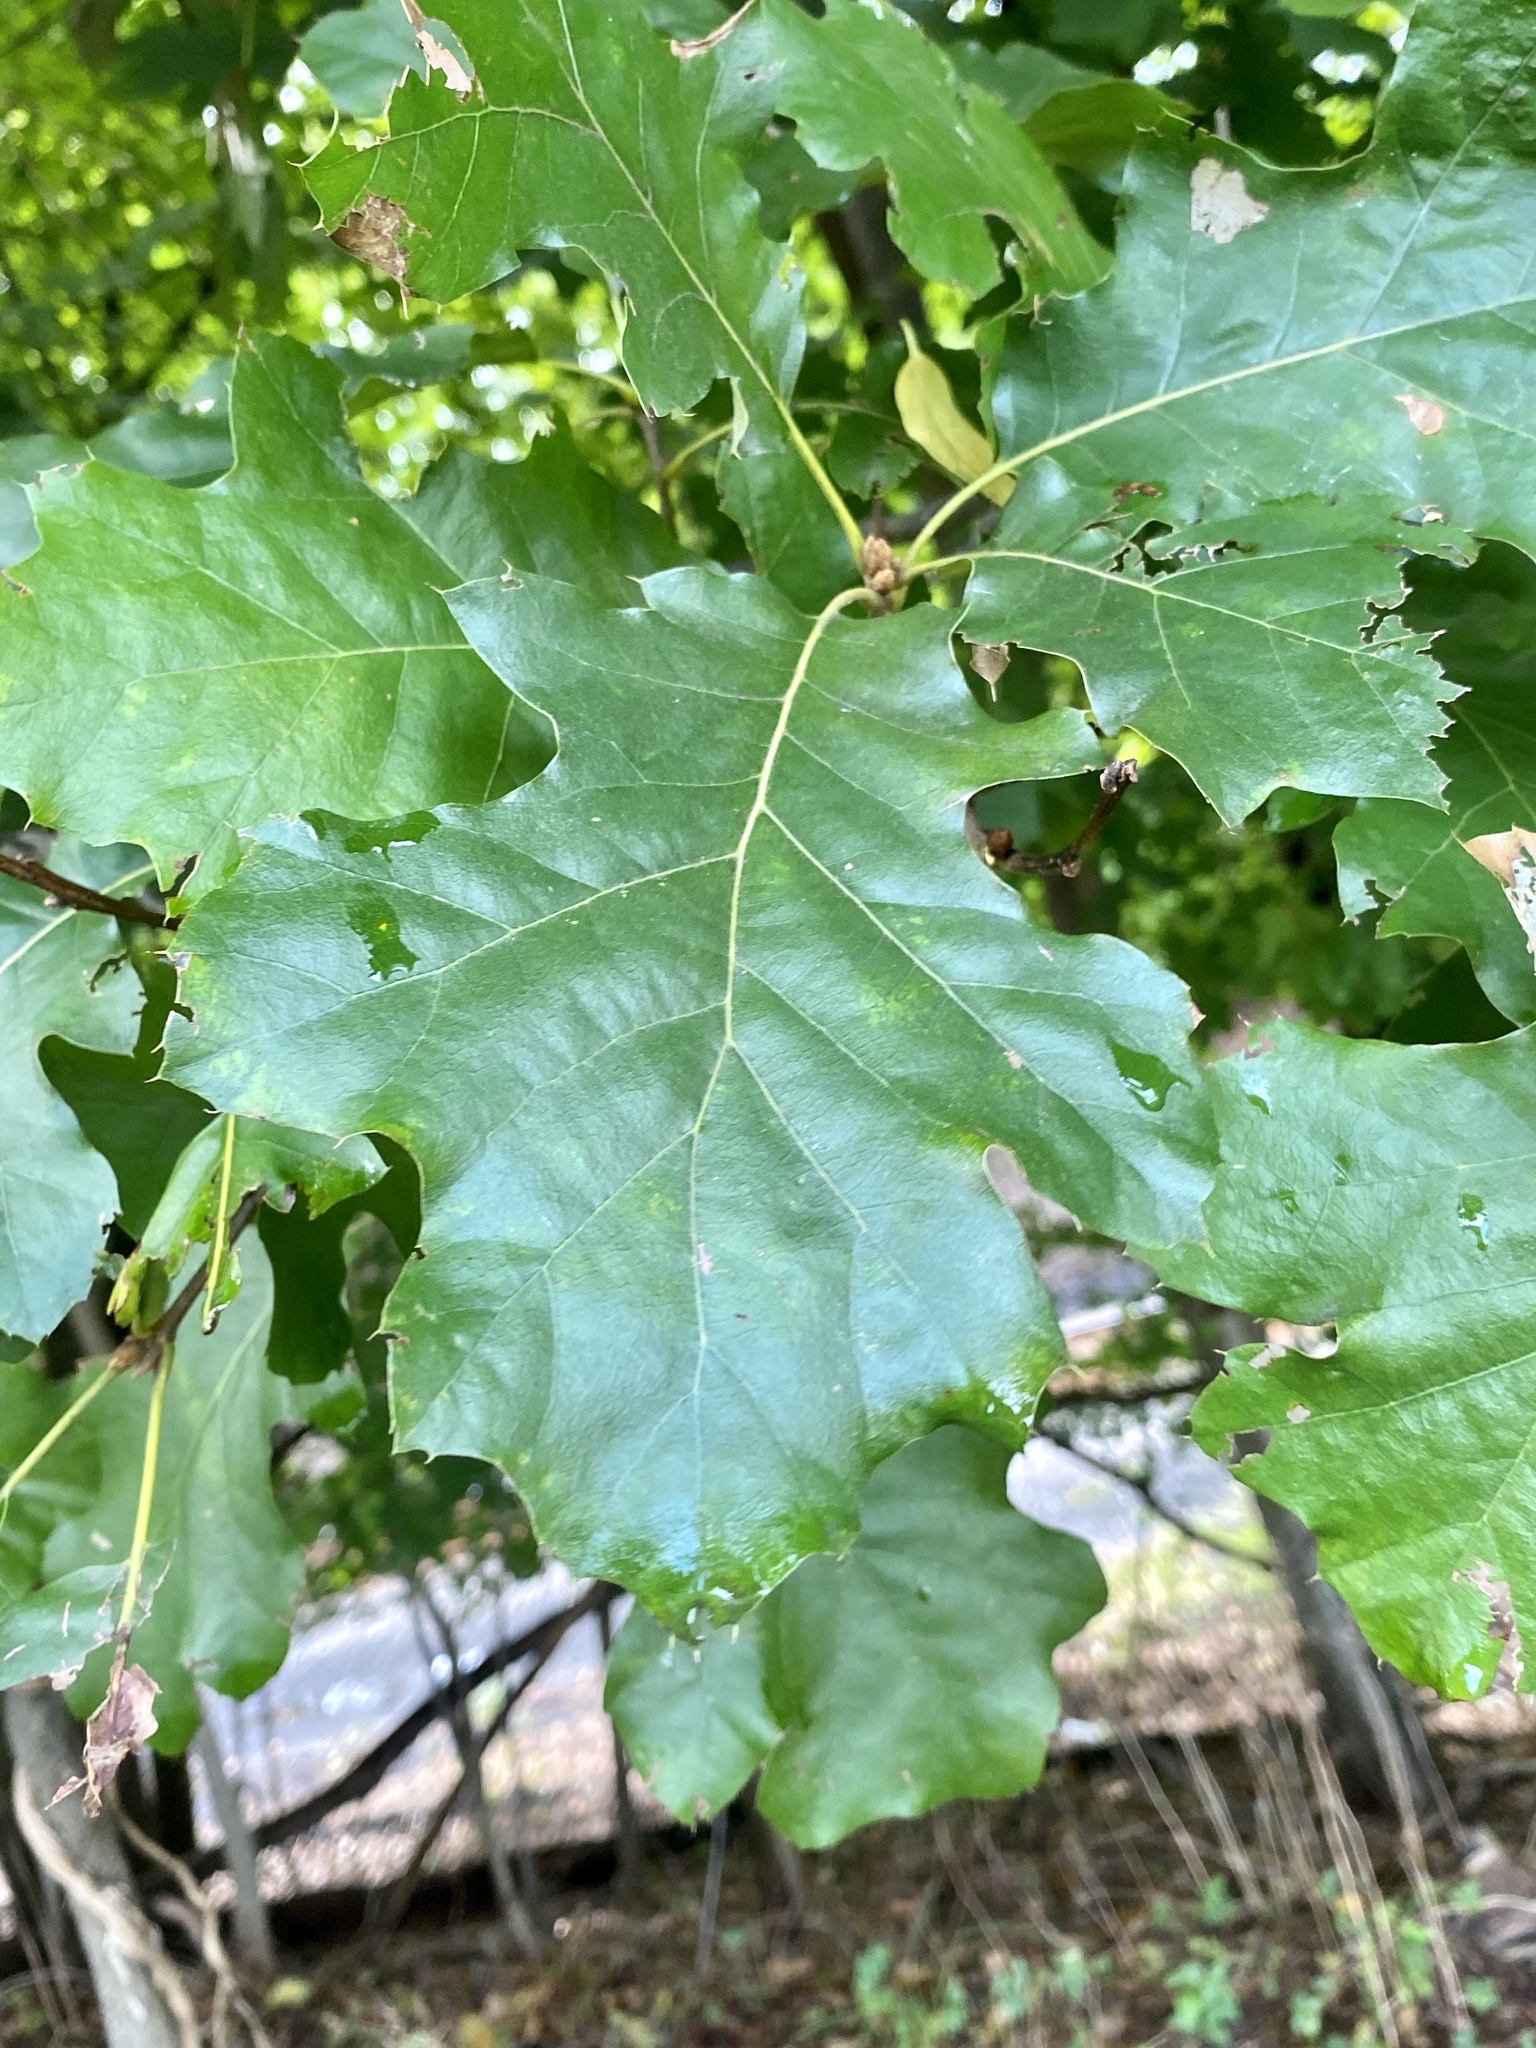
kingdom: Plantae
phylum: Tracheophyta
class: Magnoliopsida
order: Fagales
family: Fagaceae
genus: Quercus
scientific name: Quercus velutina
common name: Black oak
